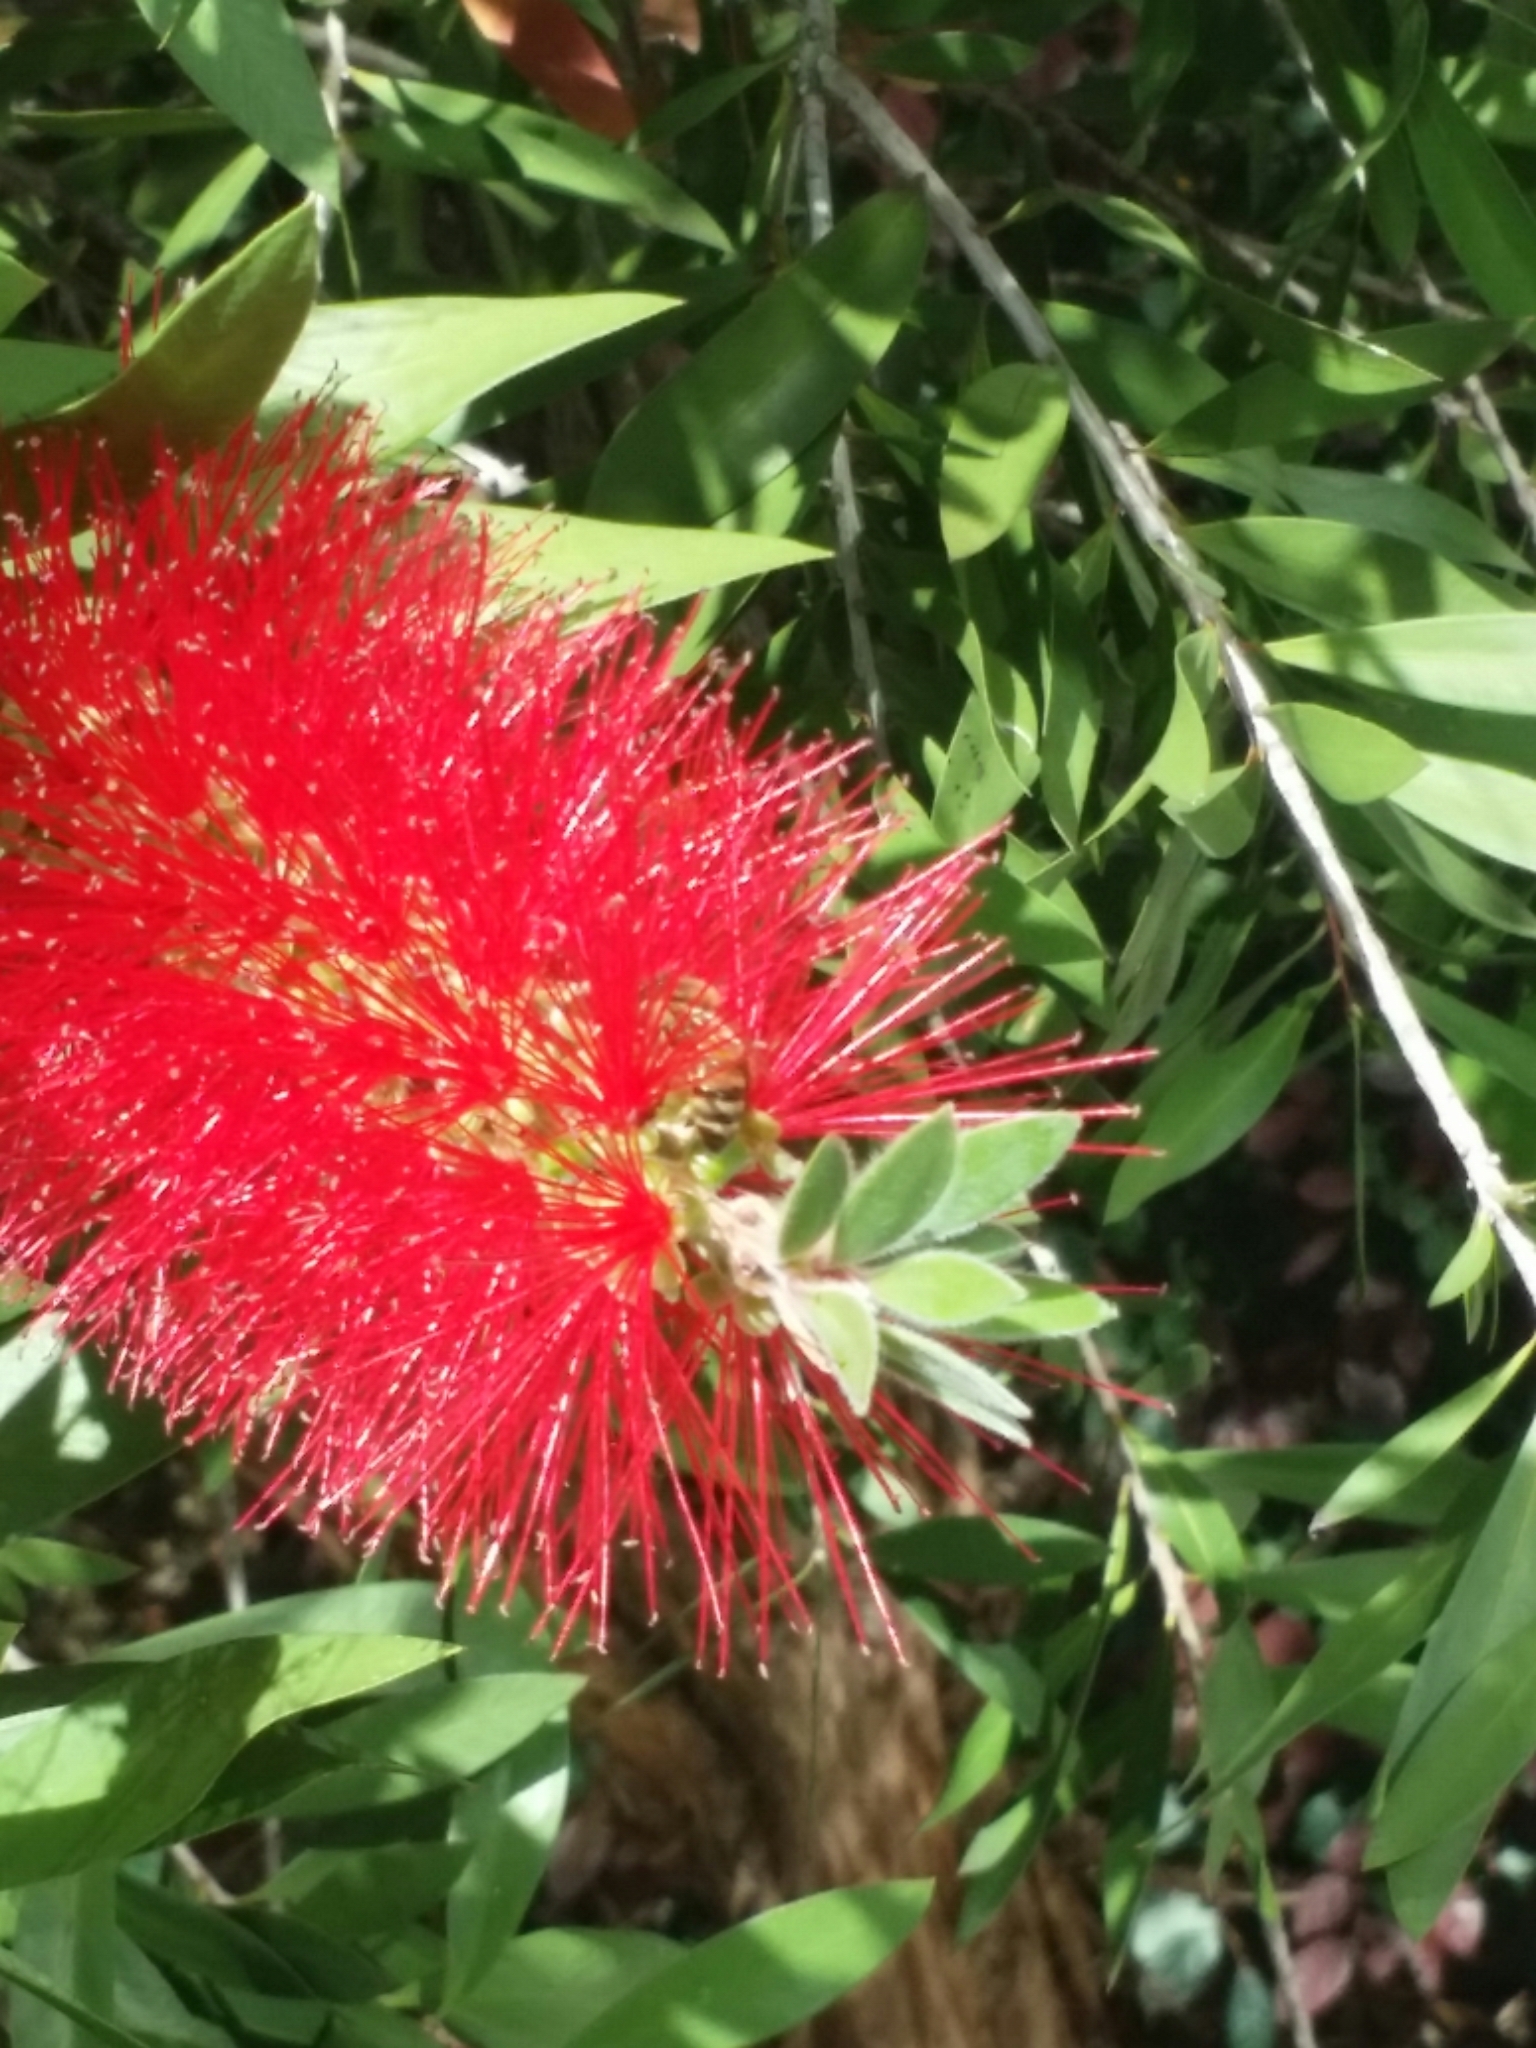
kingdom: Animalia
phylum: Arthropoda
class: Insecta
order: Hymenoptera
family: Apidae
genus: Apis
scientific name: Apis mellifera
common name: Honey bee
